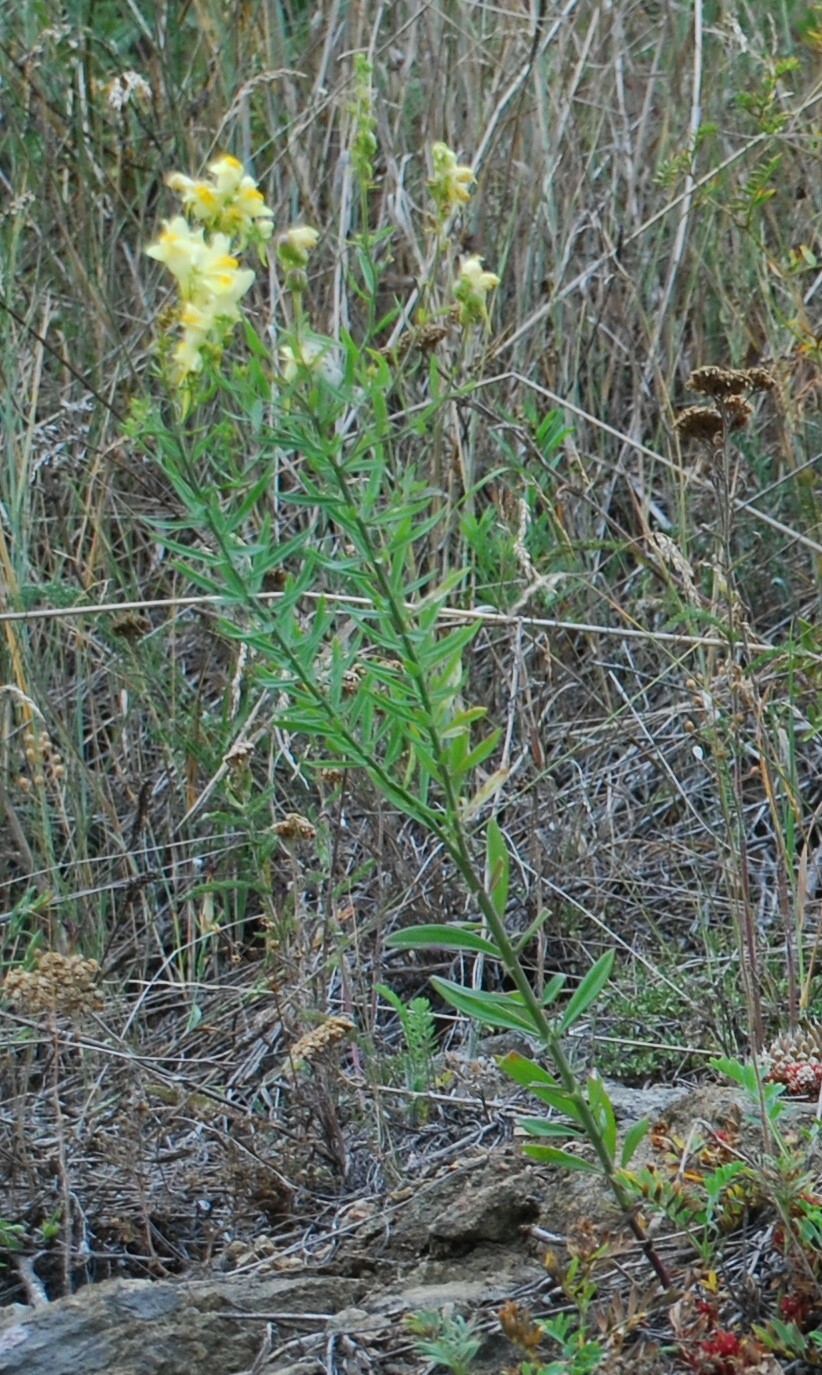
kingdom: Plantae
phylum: Tracheophyta
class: Magnoliopsida
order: Lamiales
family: Plantaginaceae
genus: Linaria
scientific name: Linaria vulgaris
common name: Butter and eggs
